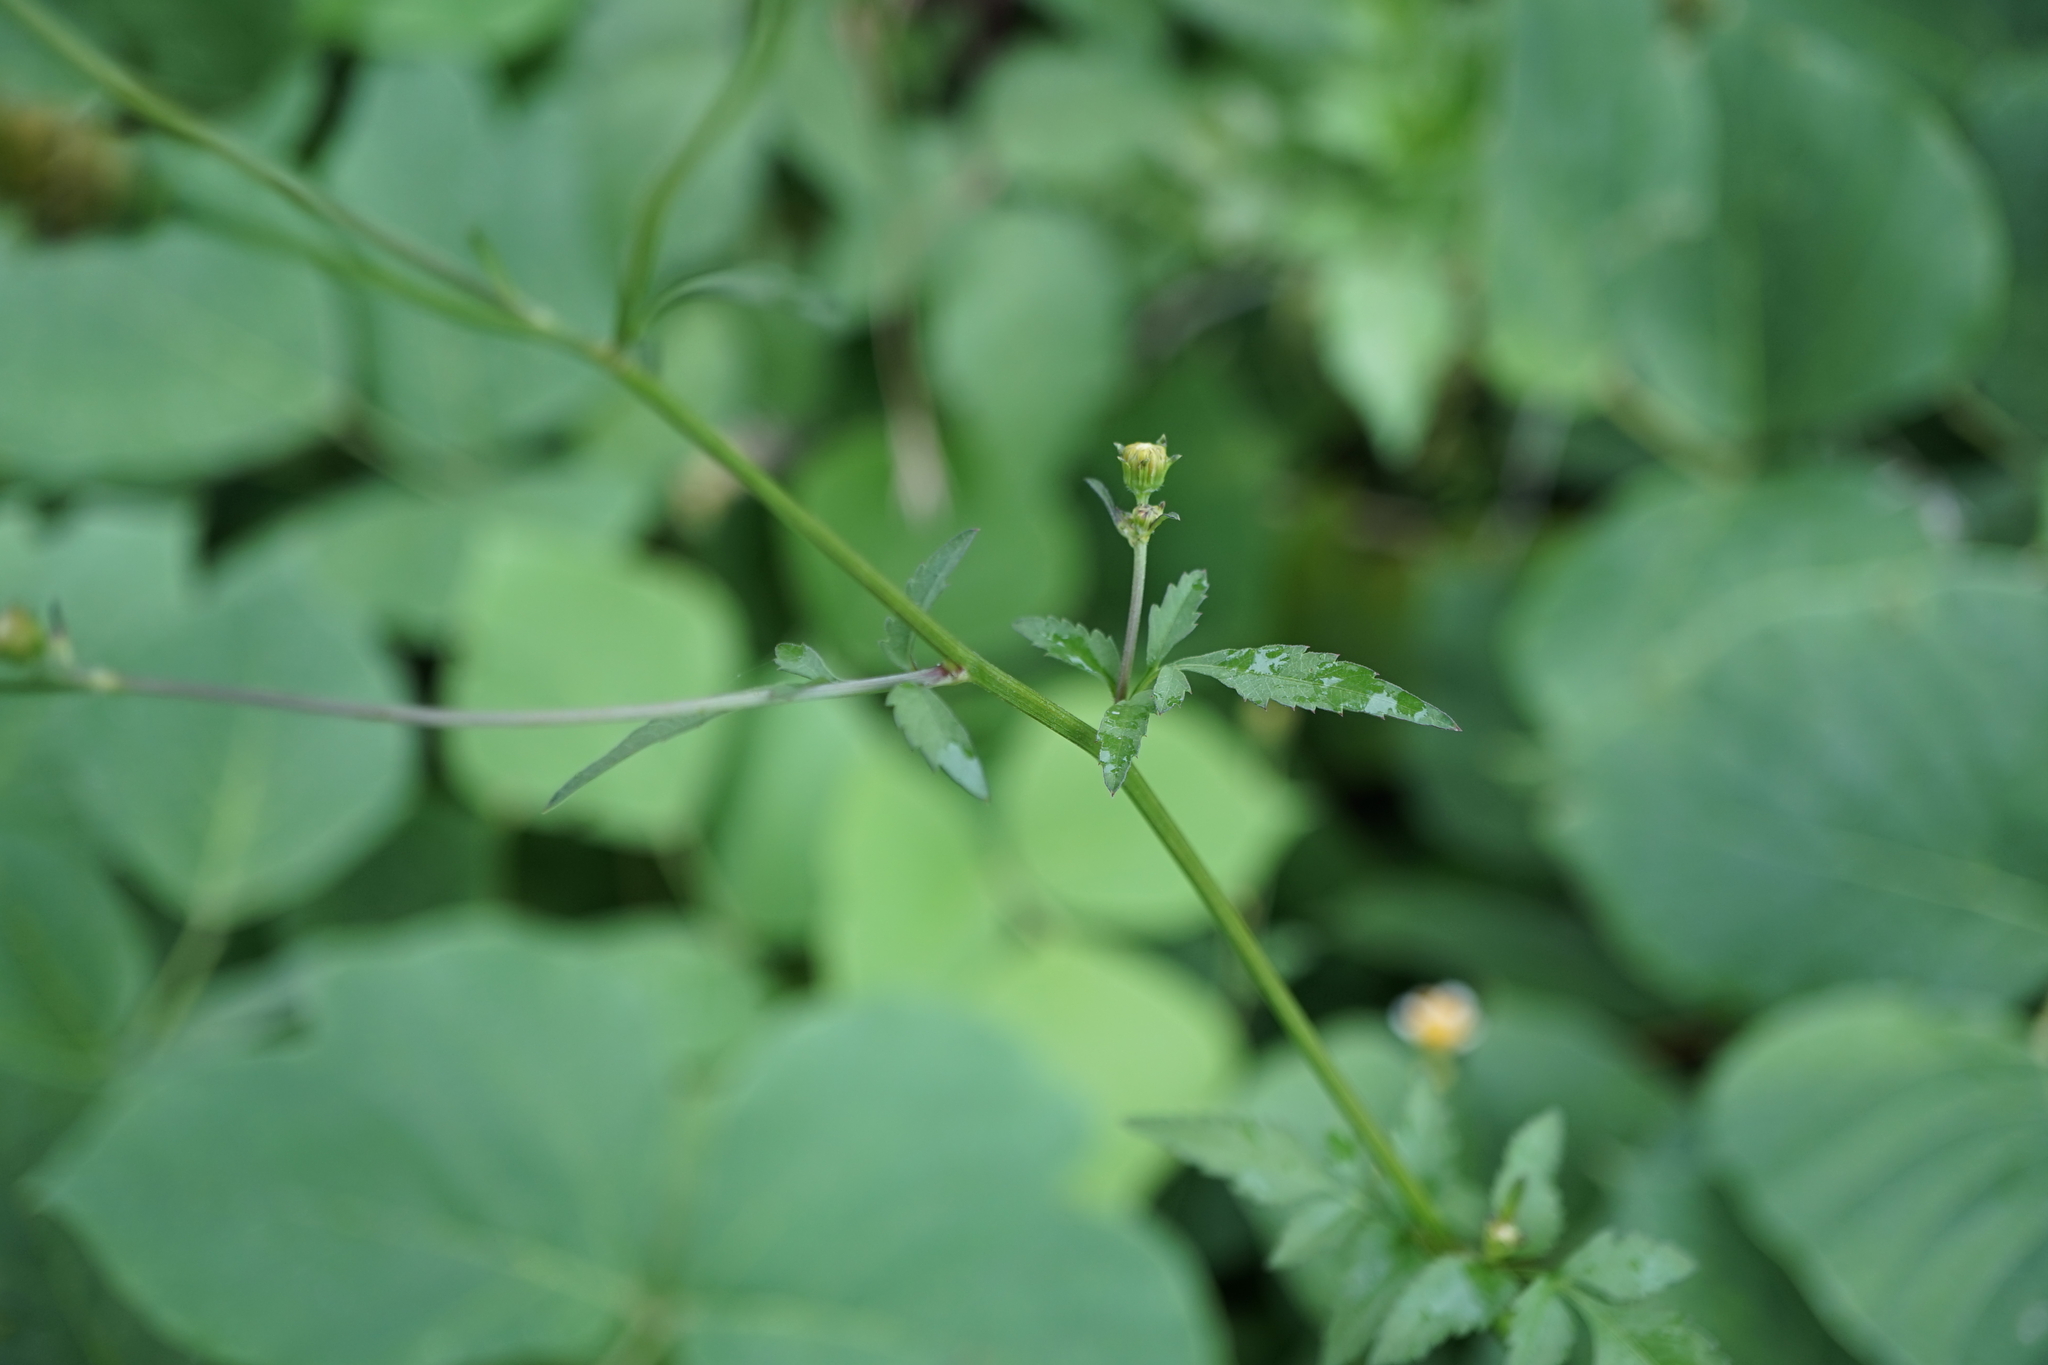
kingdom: Plantae
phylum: Tracheophyta
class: Magnoliopsida
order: Asterales
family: Asteraceae
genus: Bidens
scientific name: Bidens pilosa
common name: Black-jack
